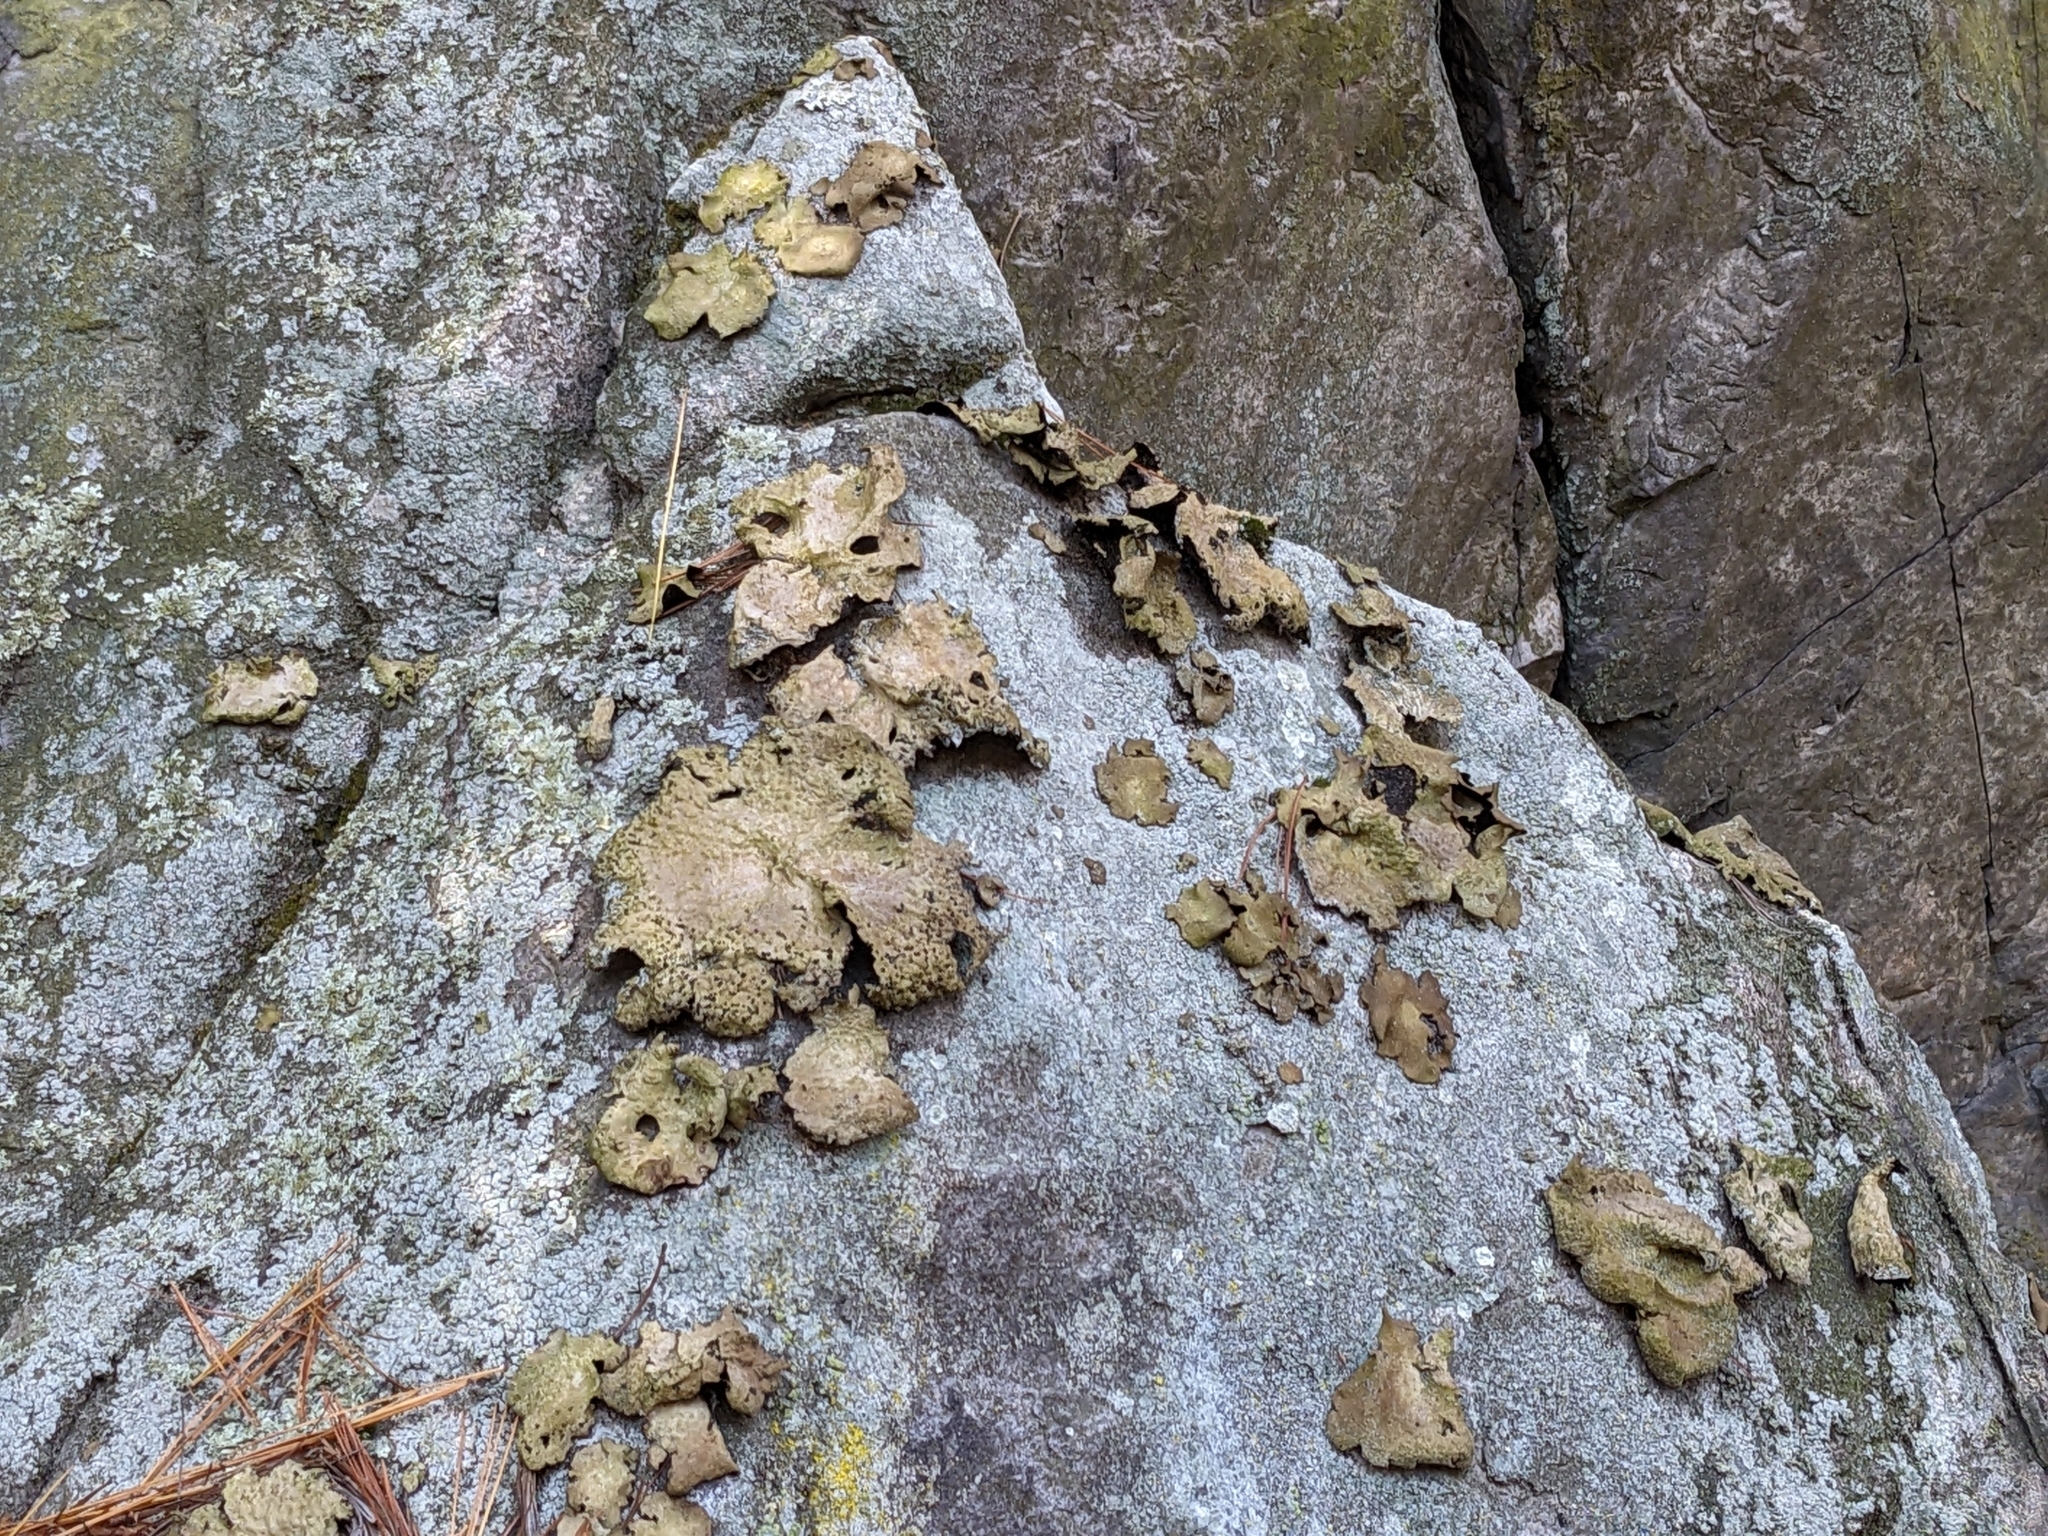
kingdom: Fungi
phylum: Ascomycota
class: Lecanoromycetes
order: Umbilicariales
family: Umbilicariaceae
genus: Lasallia
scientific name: Lasallia papulosa
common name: Common toadskin lichen
